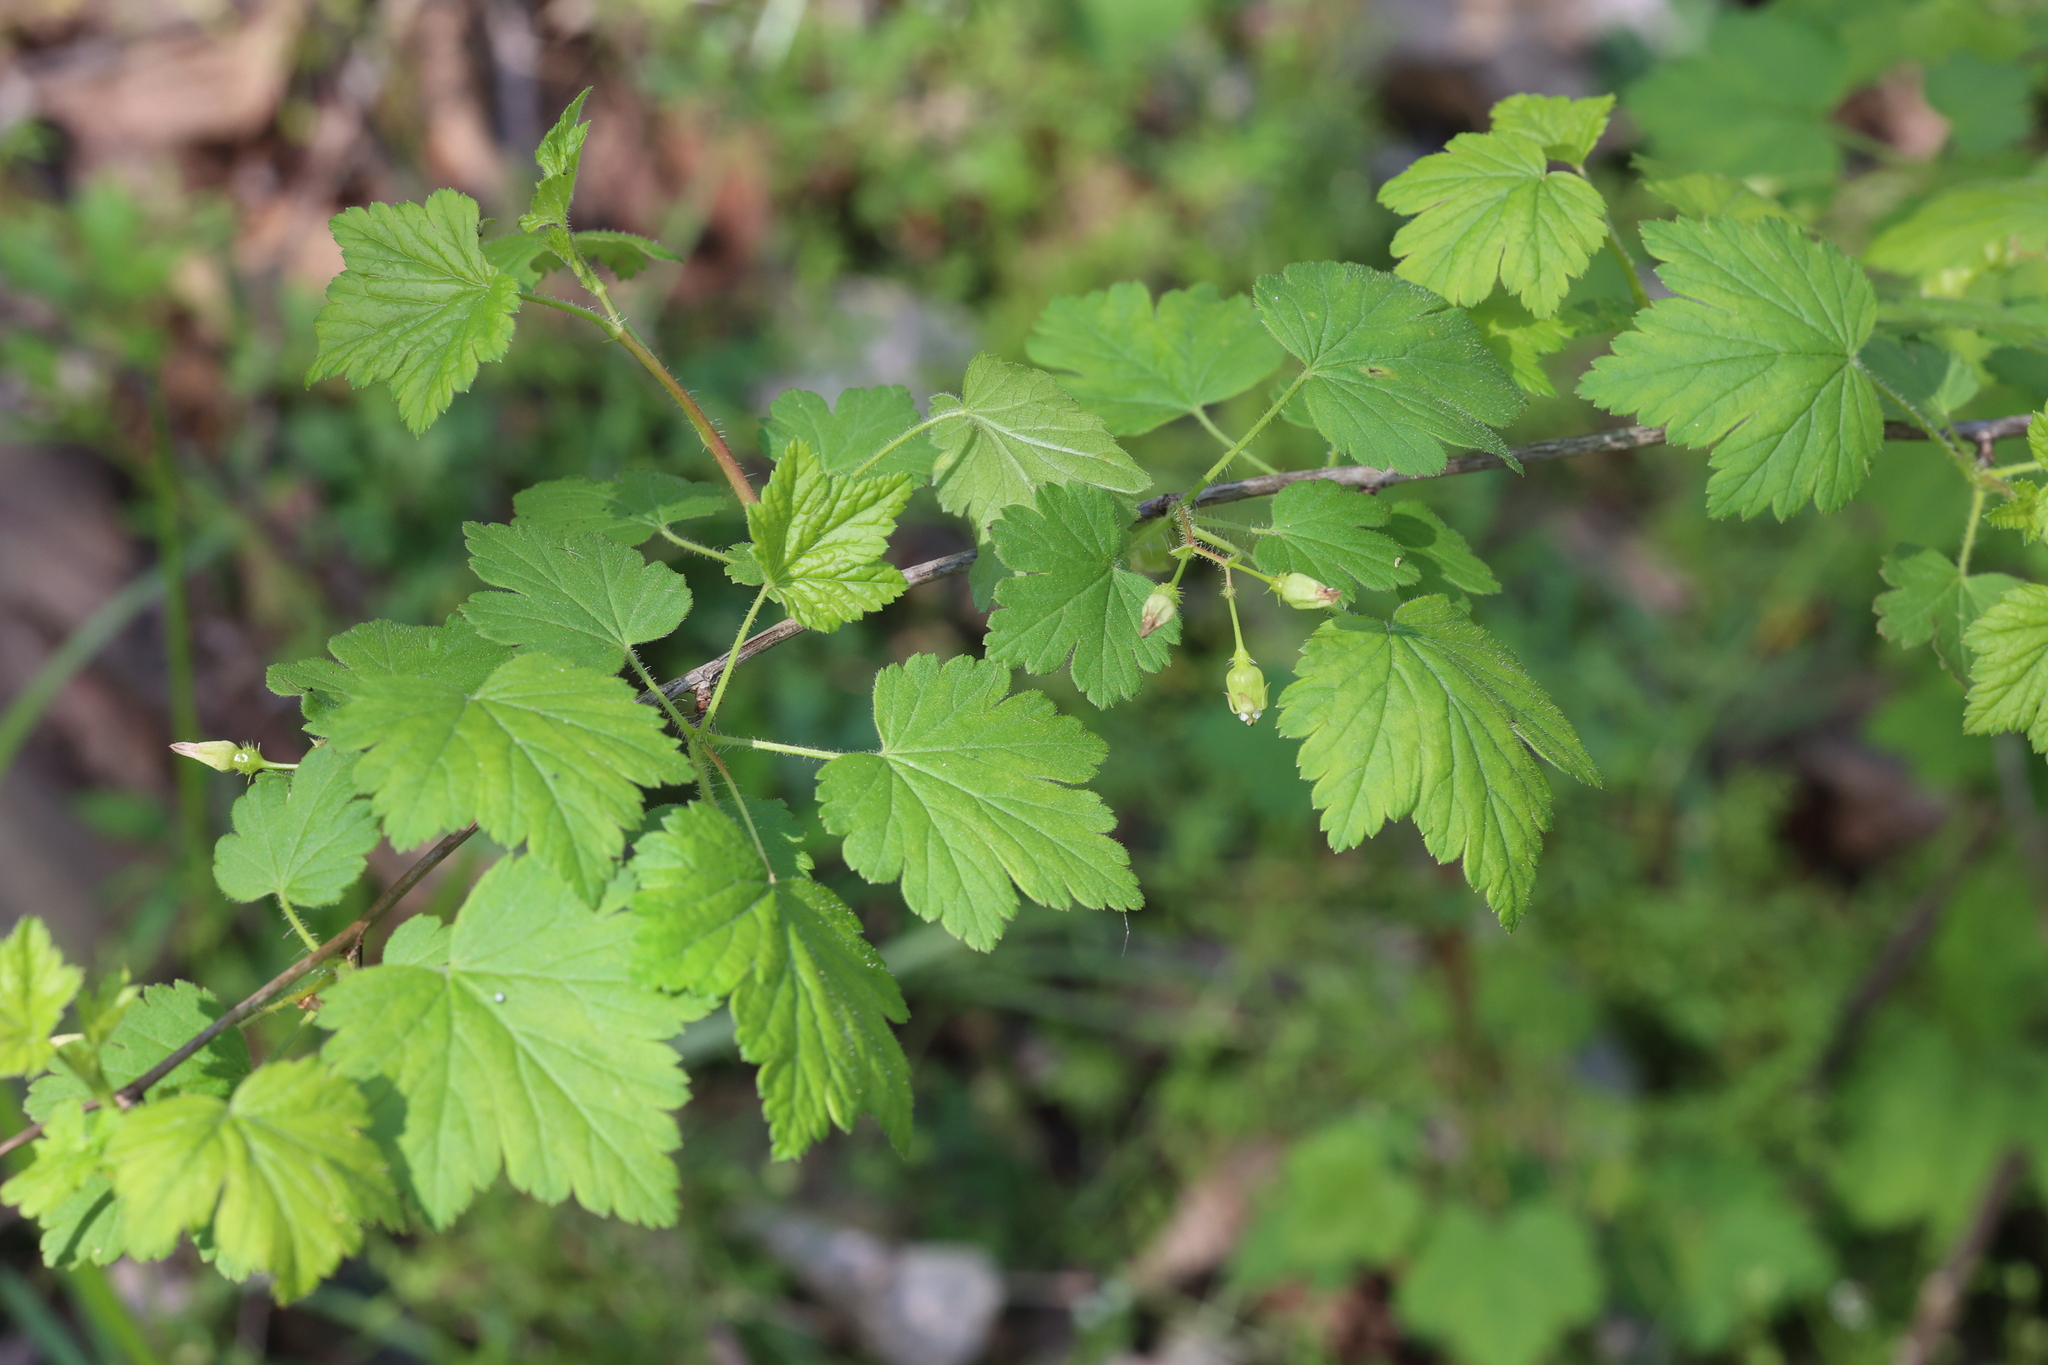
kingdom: Plantae
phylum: Tracheophyta
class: Magnoliopsida
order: Saxifragales
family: Grossulariaceae
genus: Ribes
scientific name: Ribes cynosbati
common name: American gooseberry
